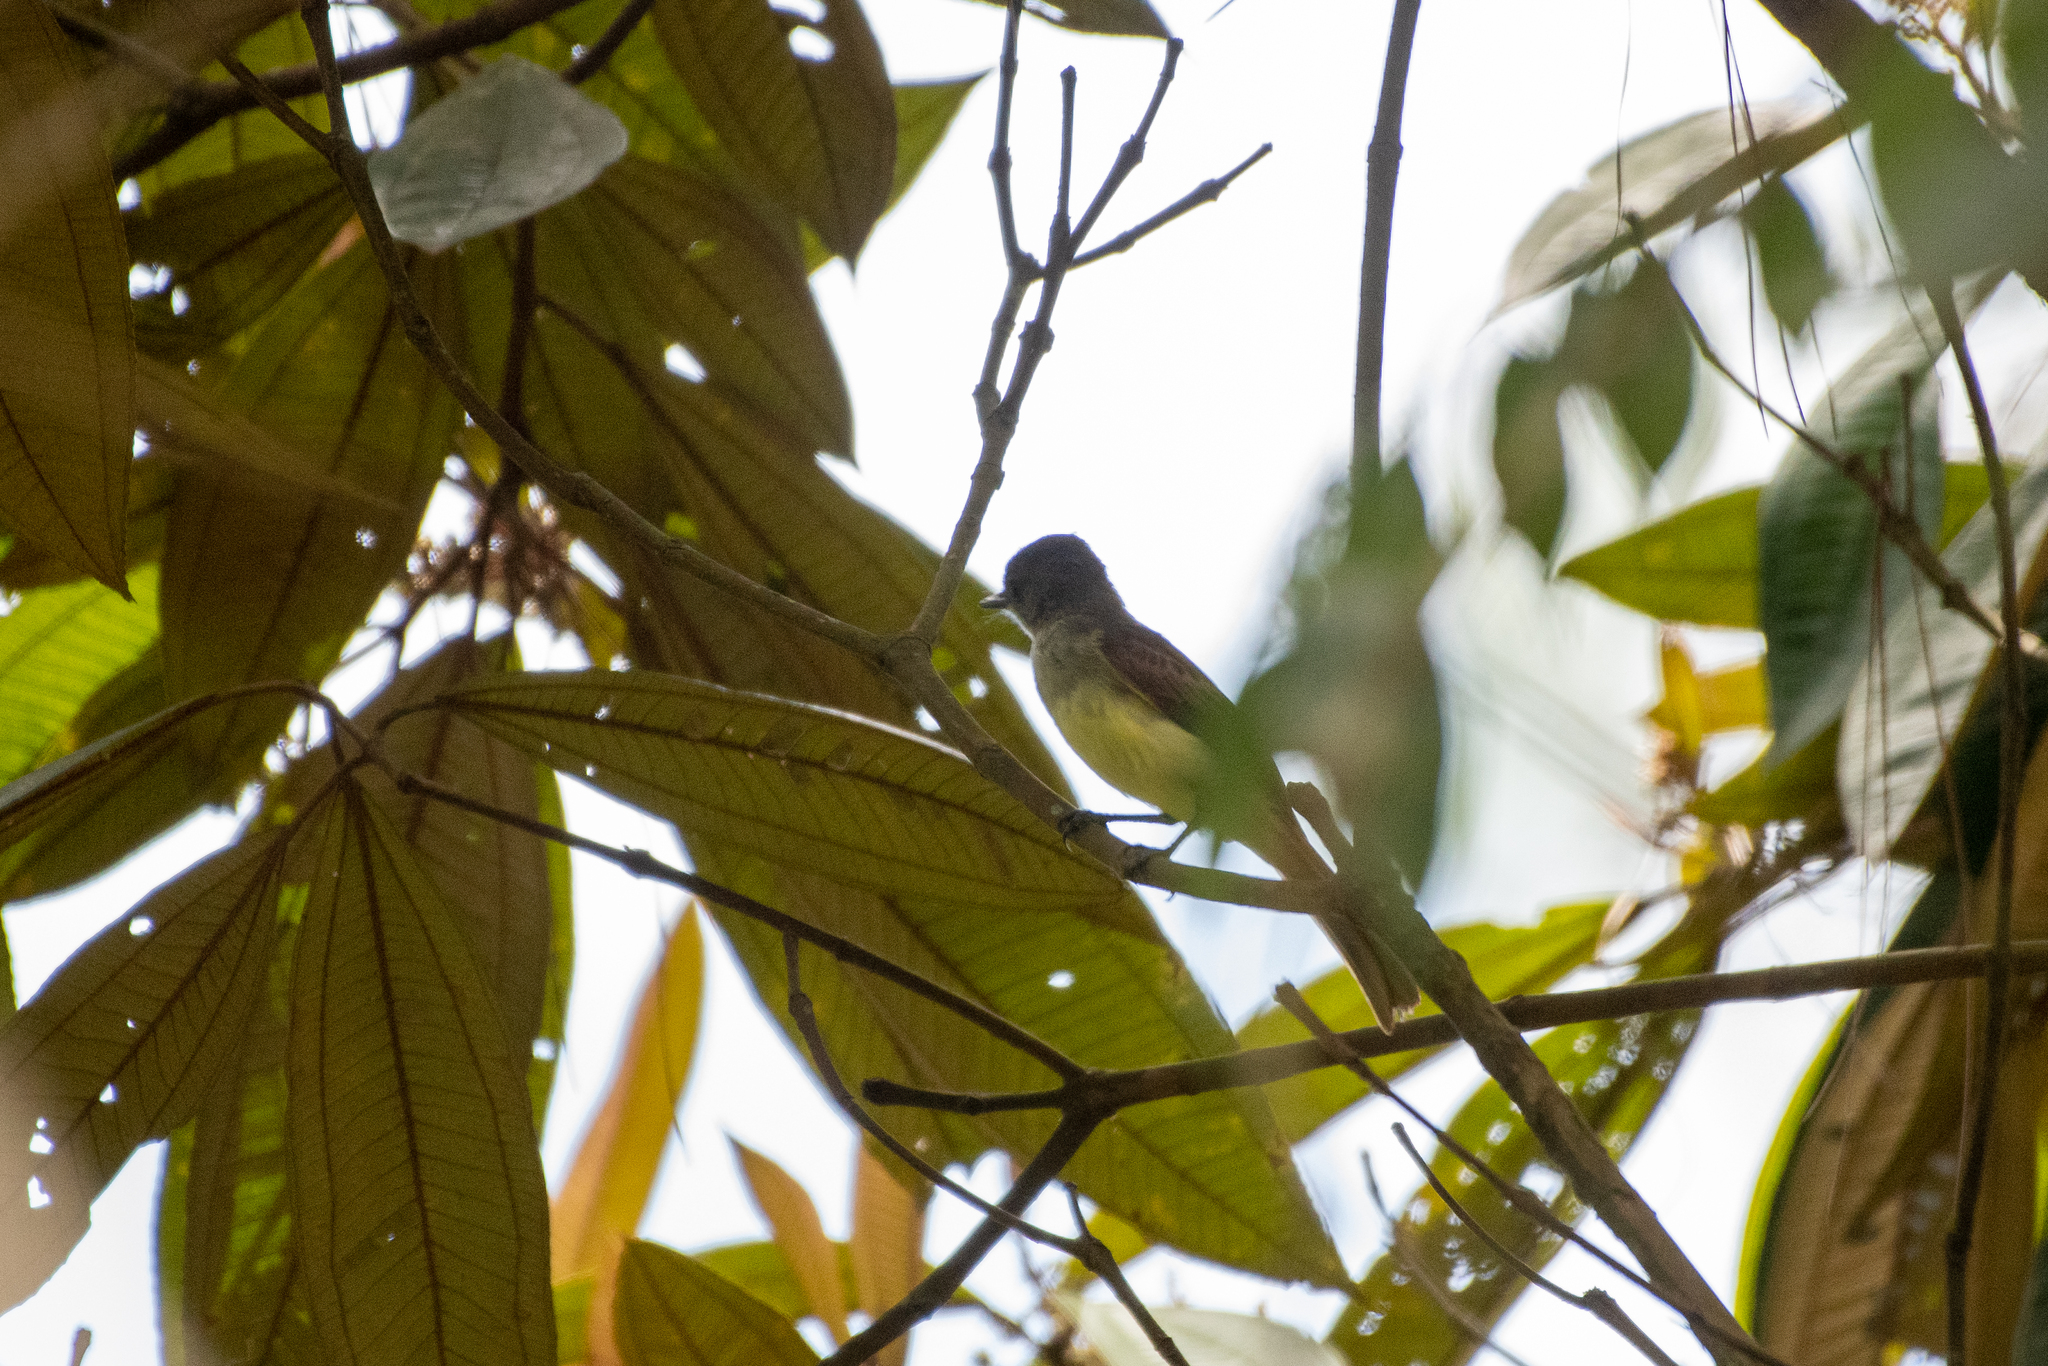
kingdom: Animalia
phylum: Chordata
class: Aves
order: Passeriformes
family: Tyrannidae
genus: Myiarchus
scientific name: Myiarchus tuberculifer
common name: Dusky-capped flycatcher
